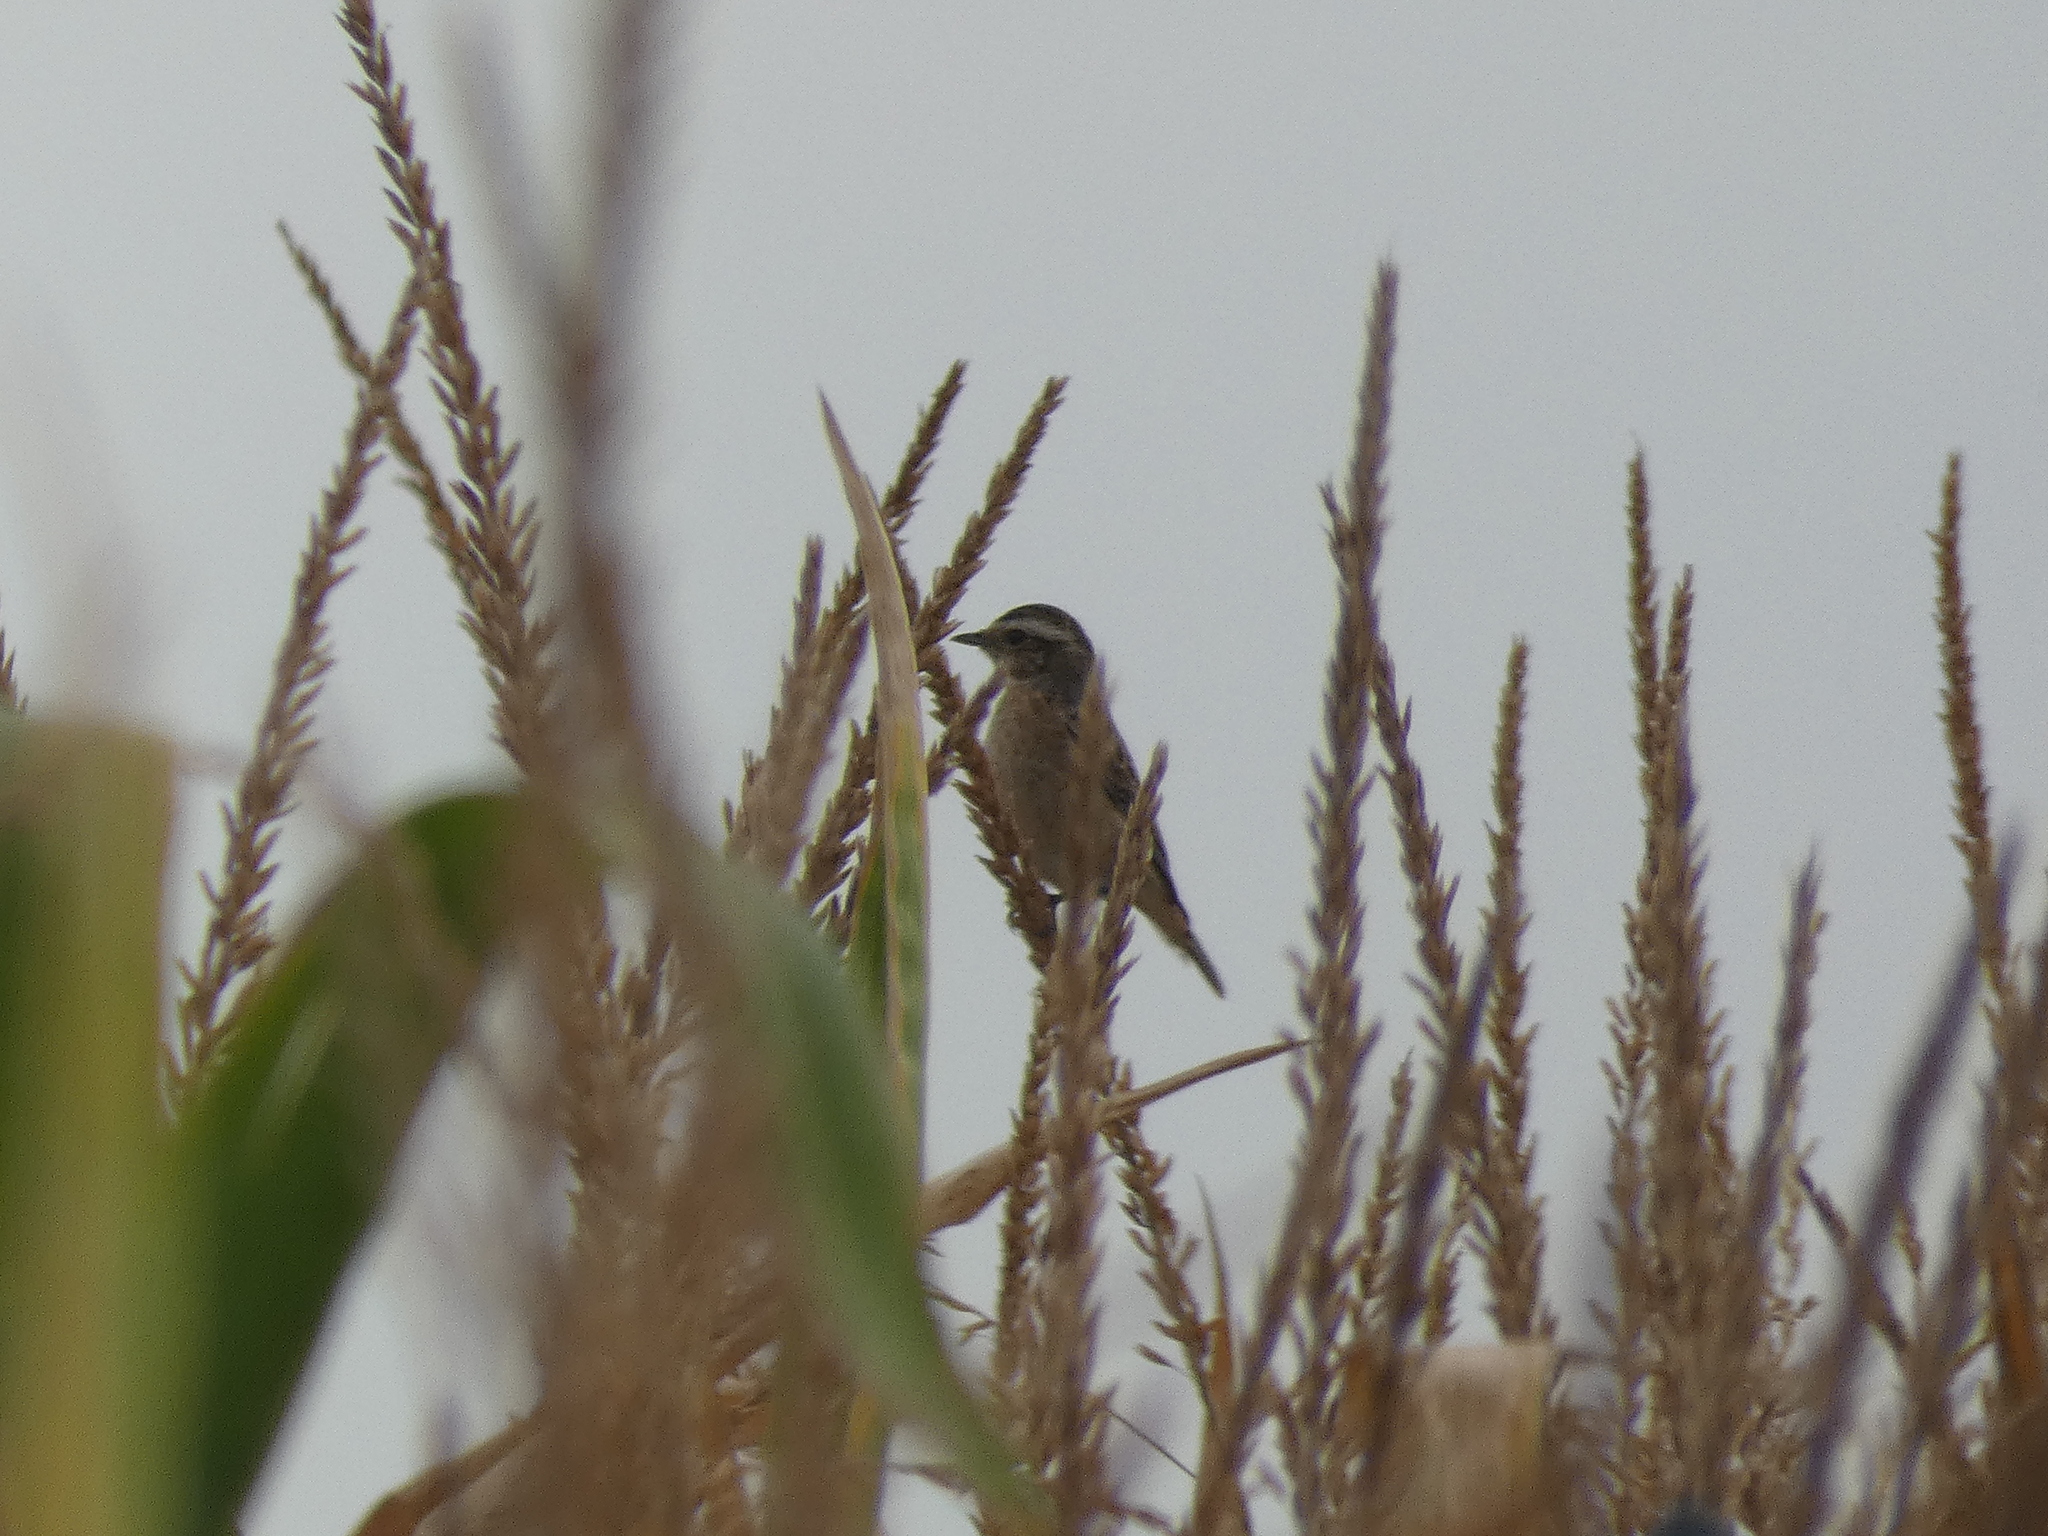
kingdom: Animalia
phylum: Chordata
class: Aves
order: Passeriformes
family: Muscicapidae
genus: Saxicola
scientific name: Saxicola rubetra
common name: Whinchat
